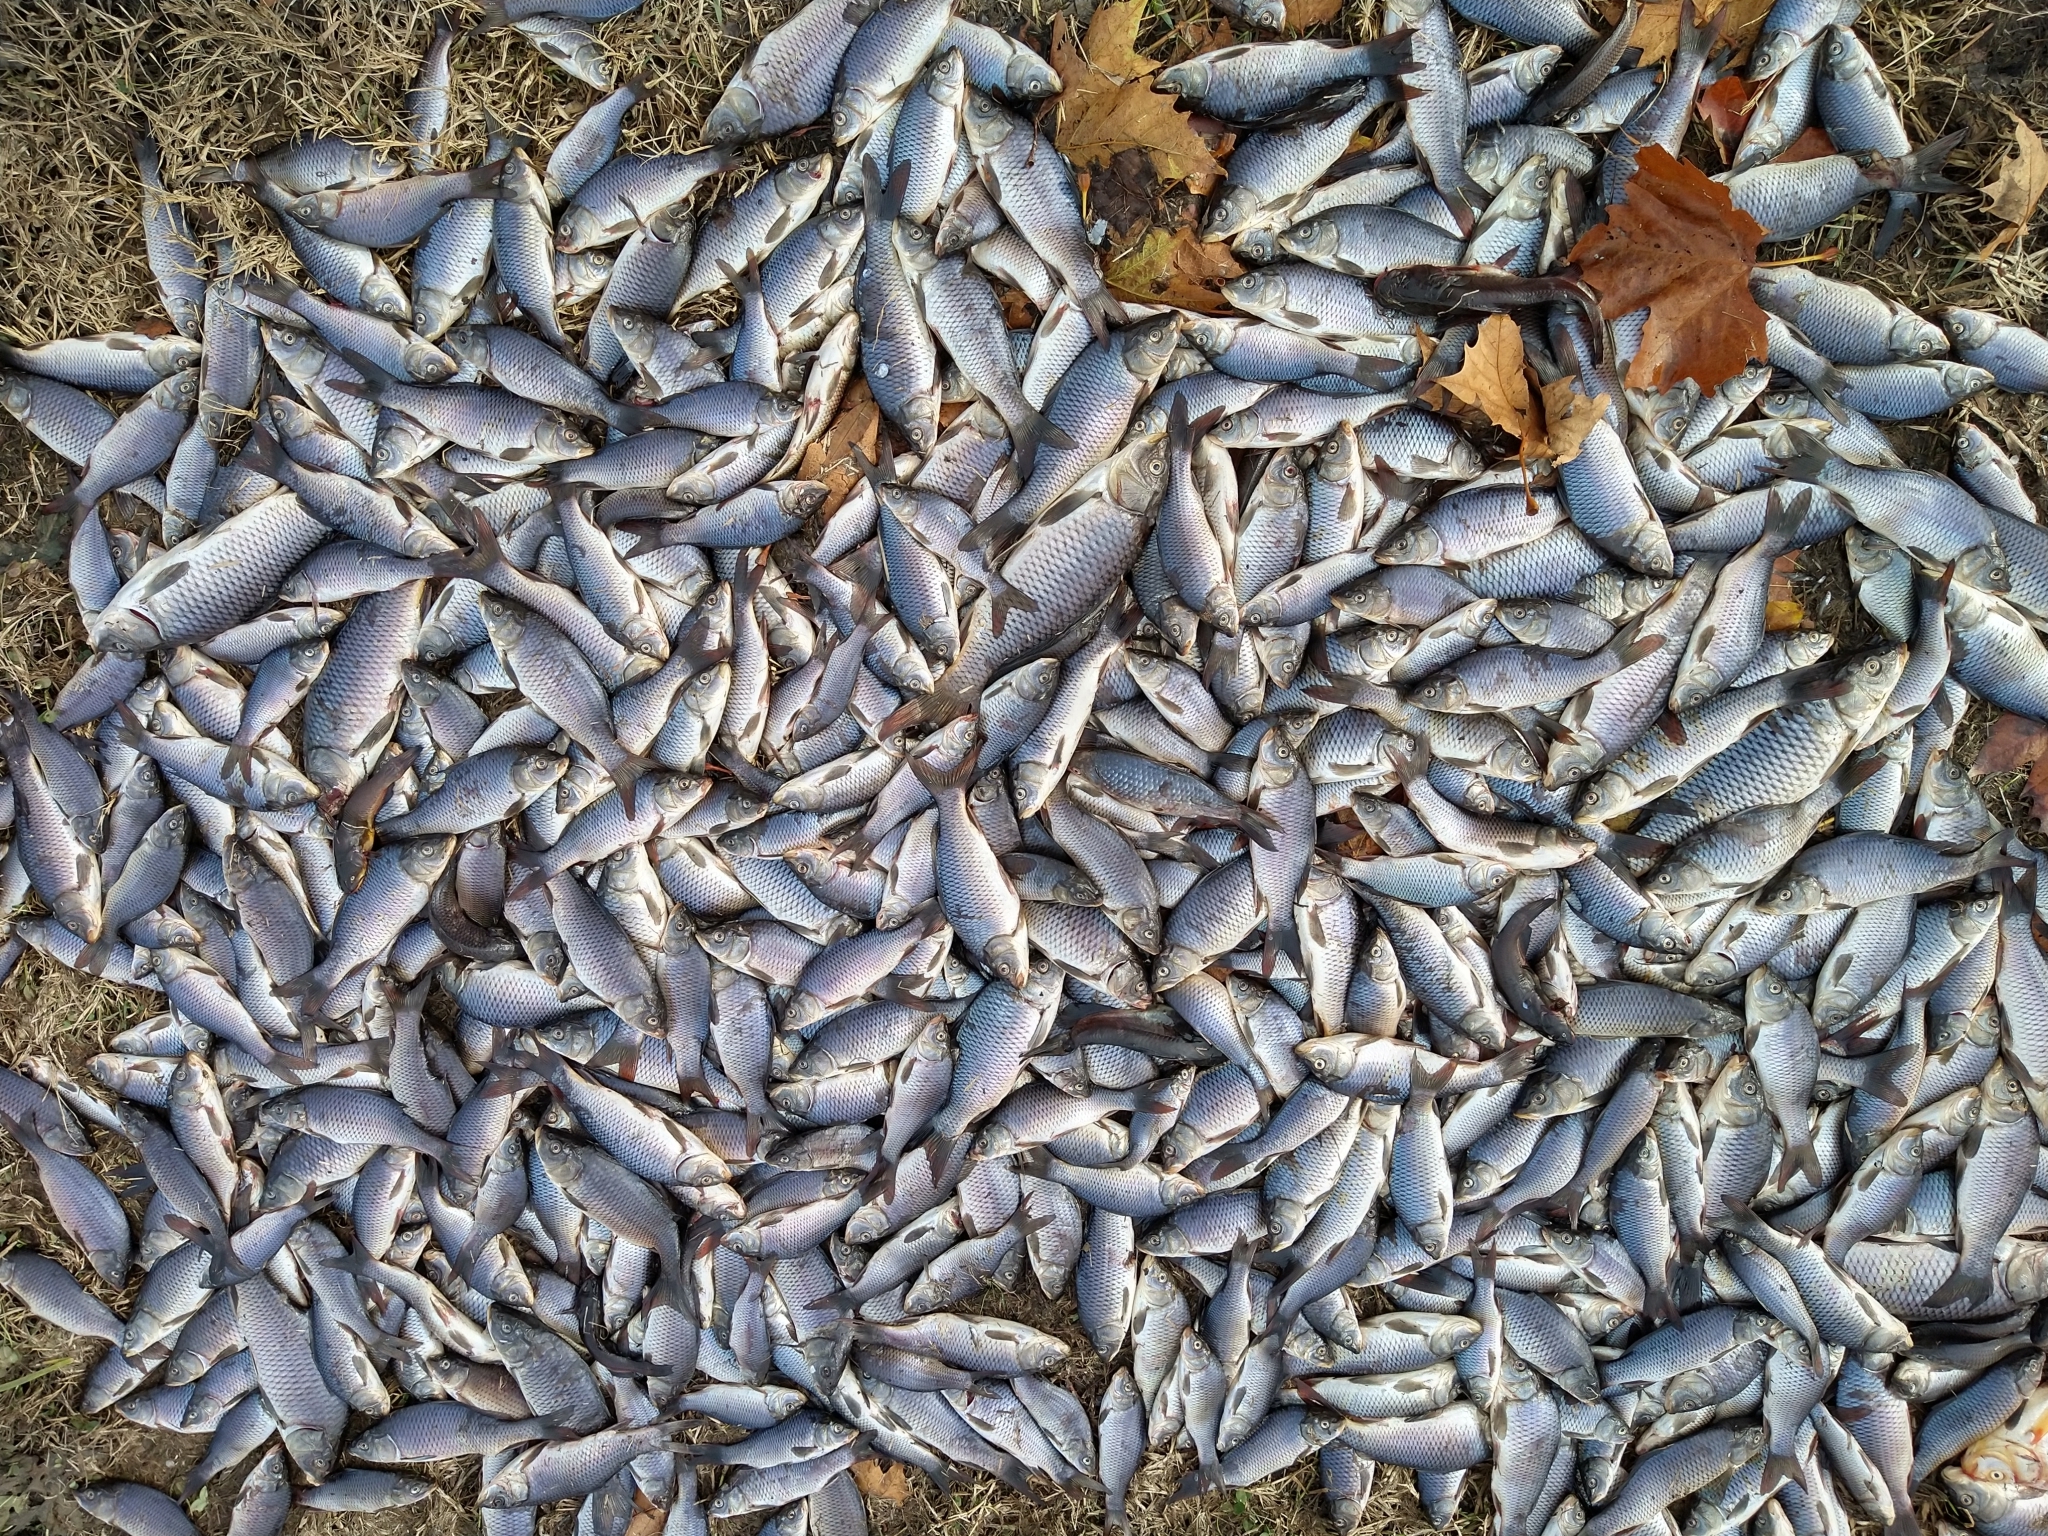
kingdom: Animalia
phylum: Chordata
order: Cypriniformes
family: Cyprinidae
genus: Cyprinus
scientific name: Cyprinus carpio
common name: Common carp
